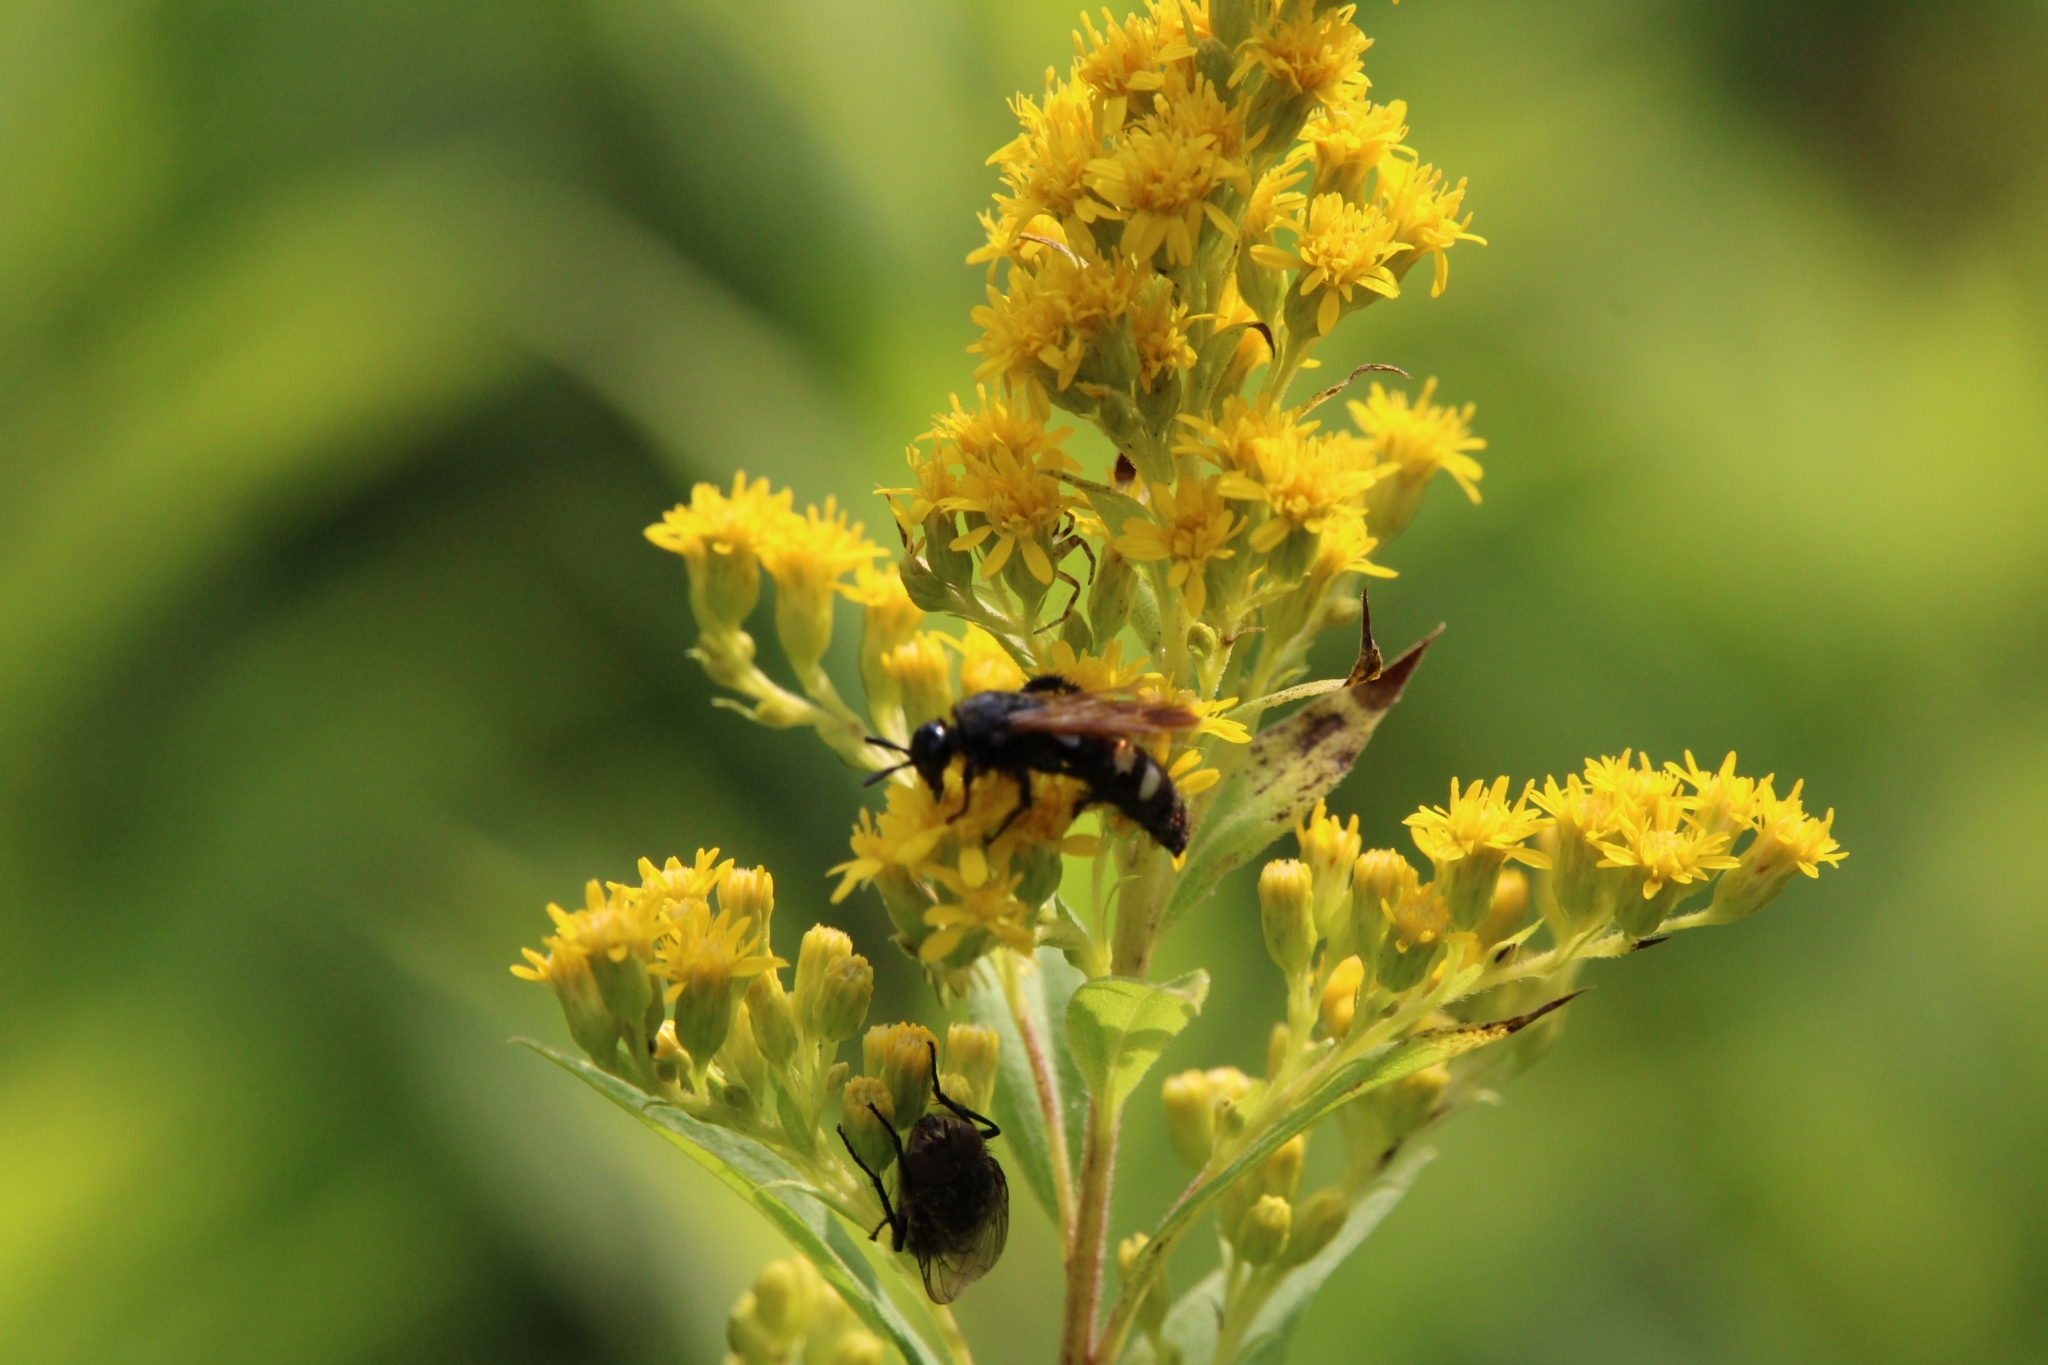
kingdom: Animalia
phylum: Arthropoda
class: Insecta
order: Hymenoptera
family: Vespidae
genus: Vespa
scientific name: Vespa sexmaculata
